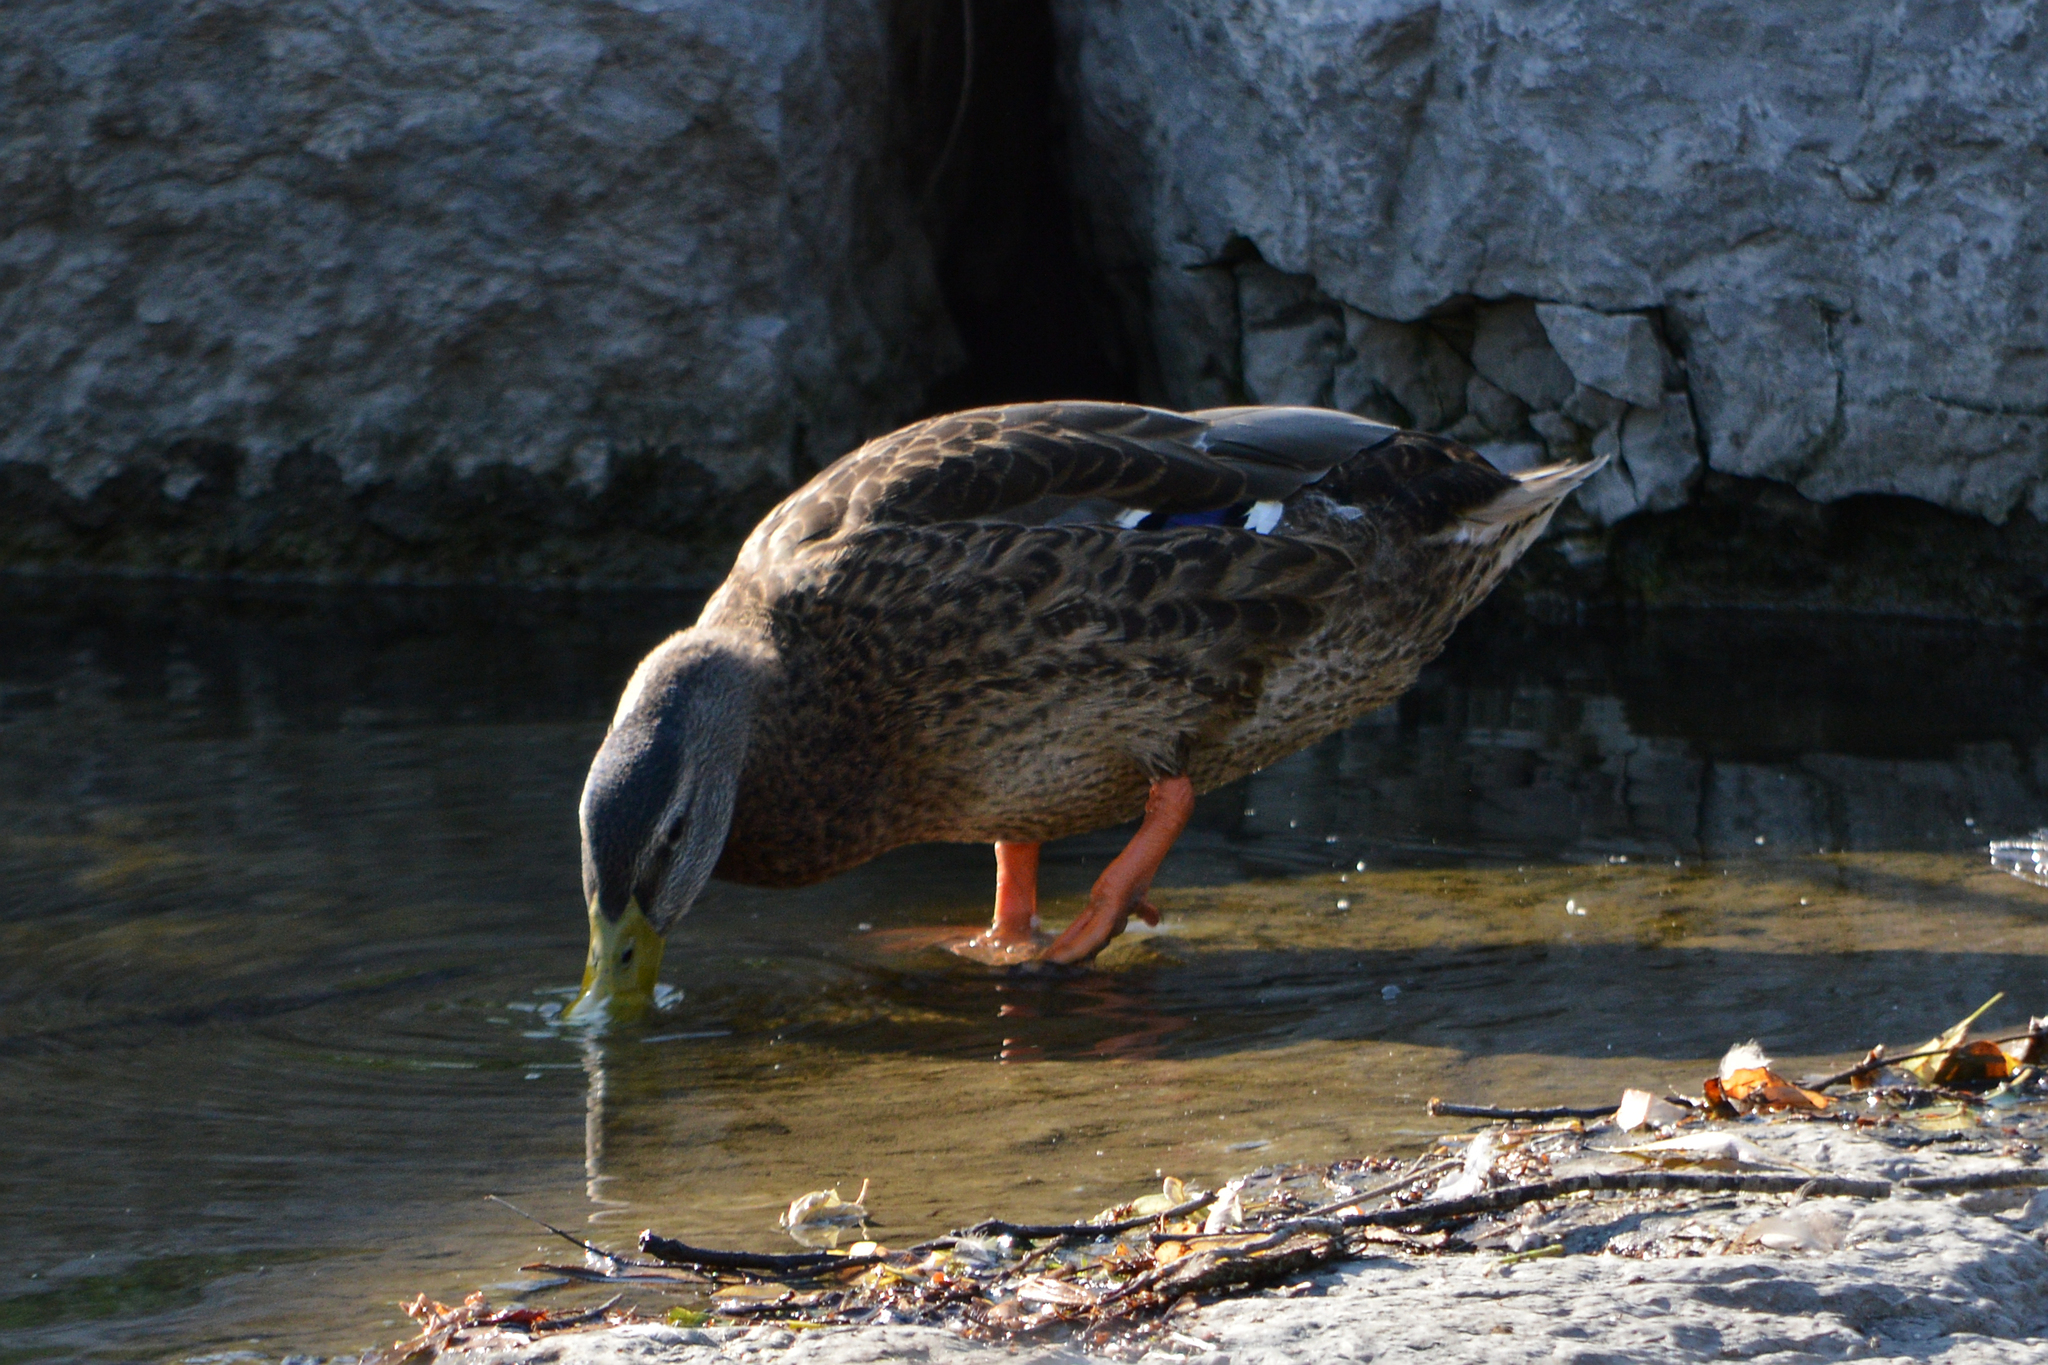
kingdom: Animalia
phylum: Chordata
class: Aves
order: Anseriformes
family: Anatidae
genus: Anas
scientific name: Anas platyrhynchos
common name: Mallard
